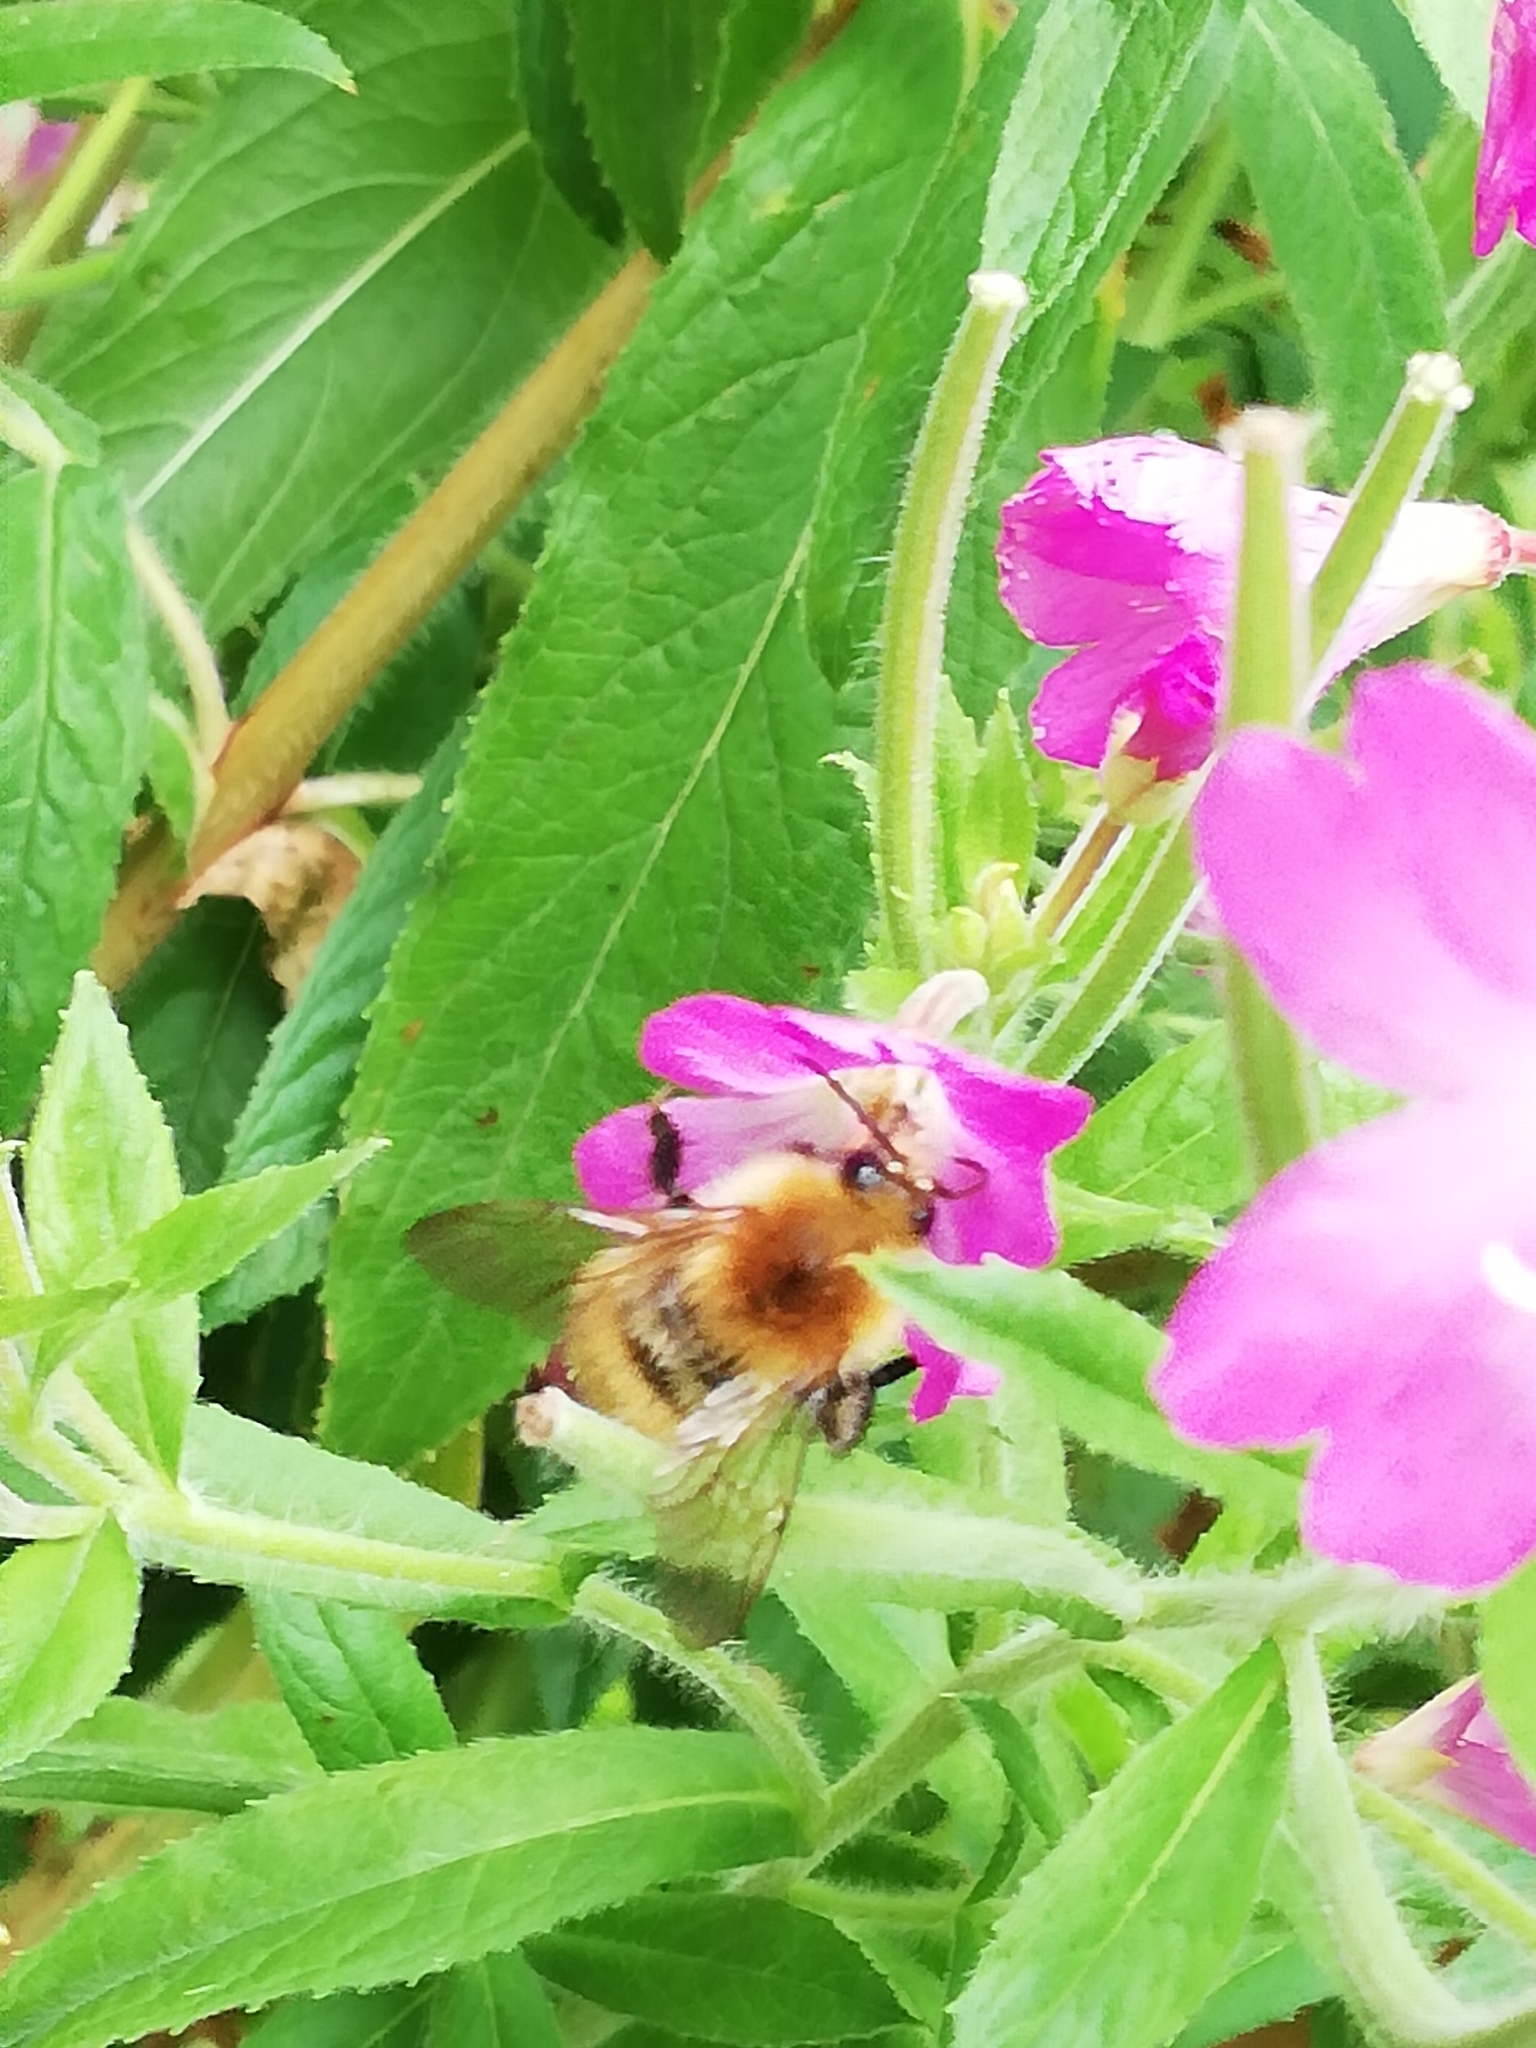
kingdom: Animalia
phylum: Arthropoda
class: Insecta
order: Hymenoptera
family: Apidae
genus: Bombus
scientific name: Bombus pascuorum
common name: Common carder bee
